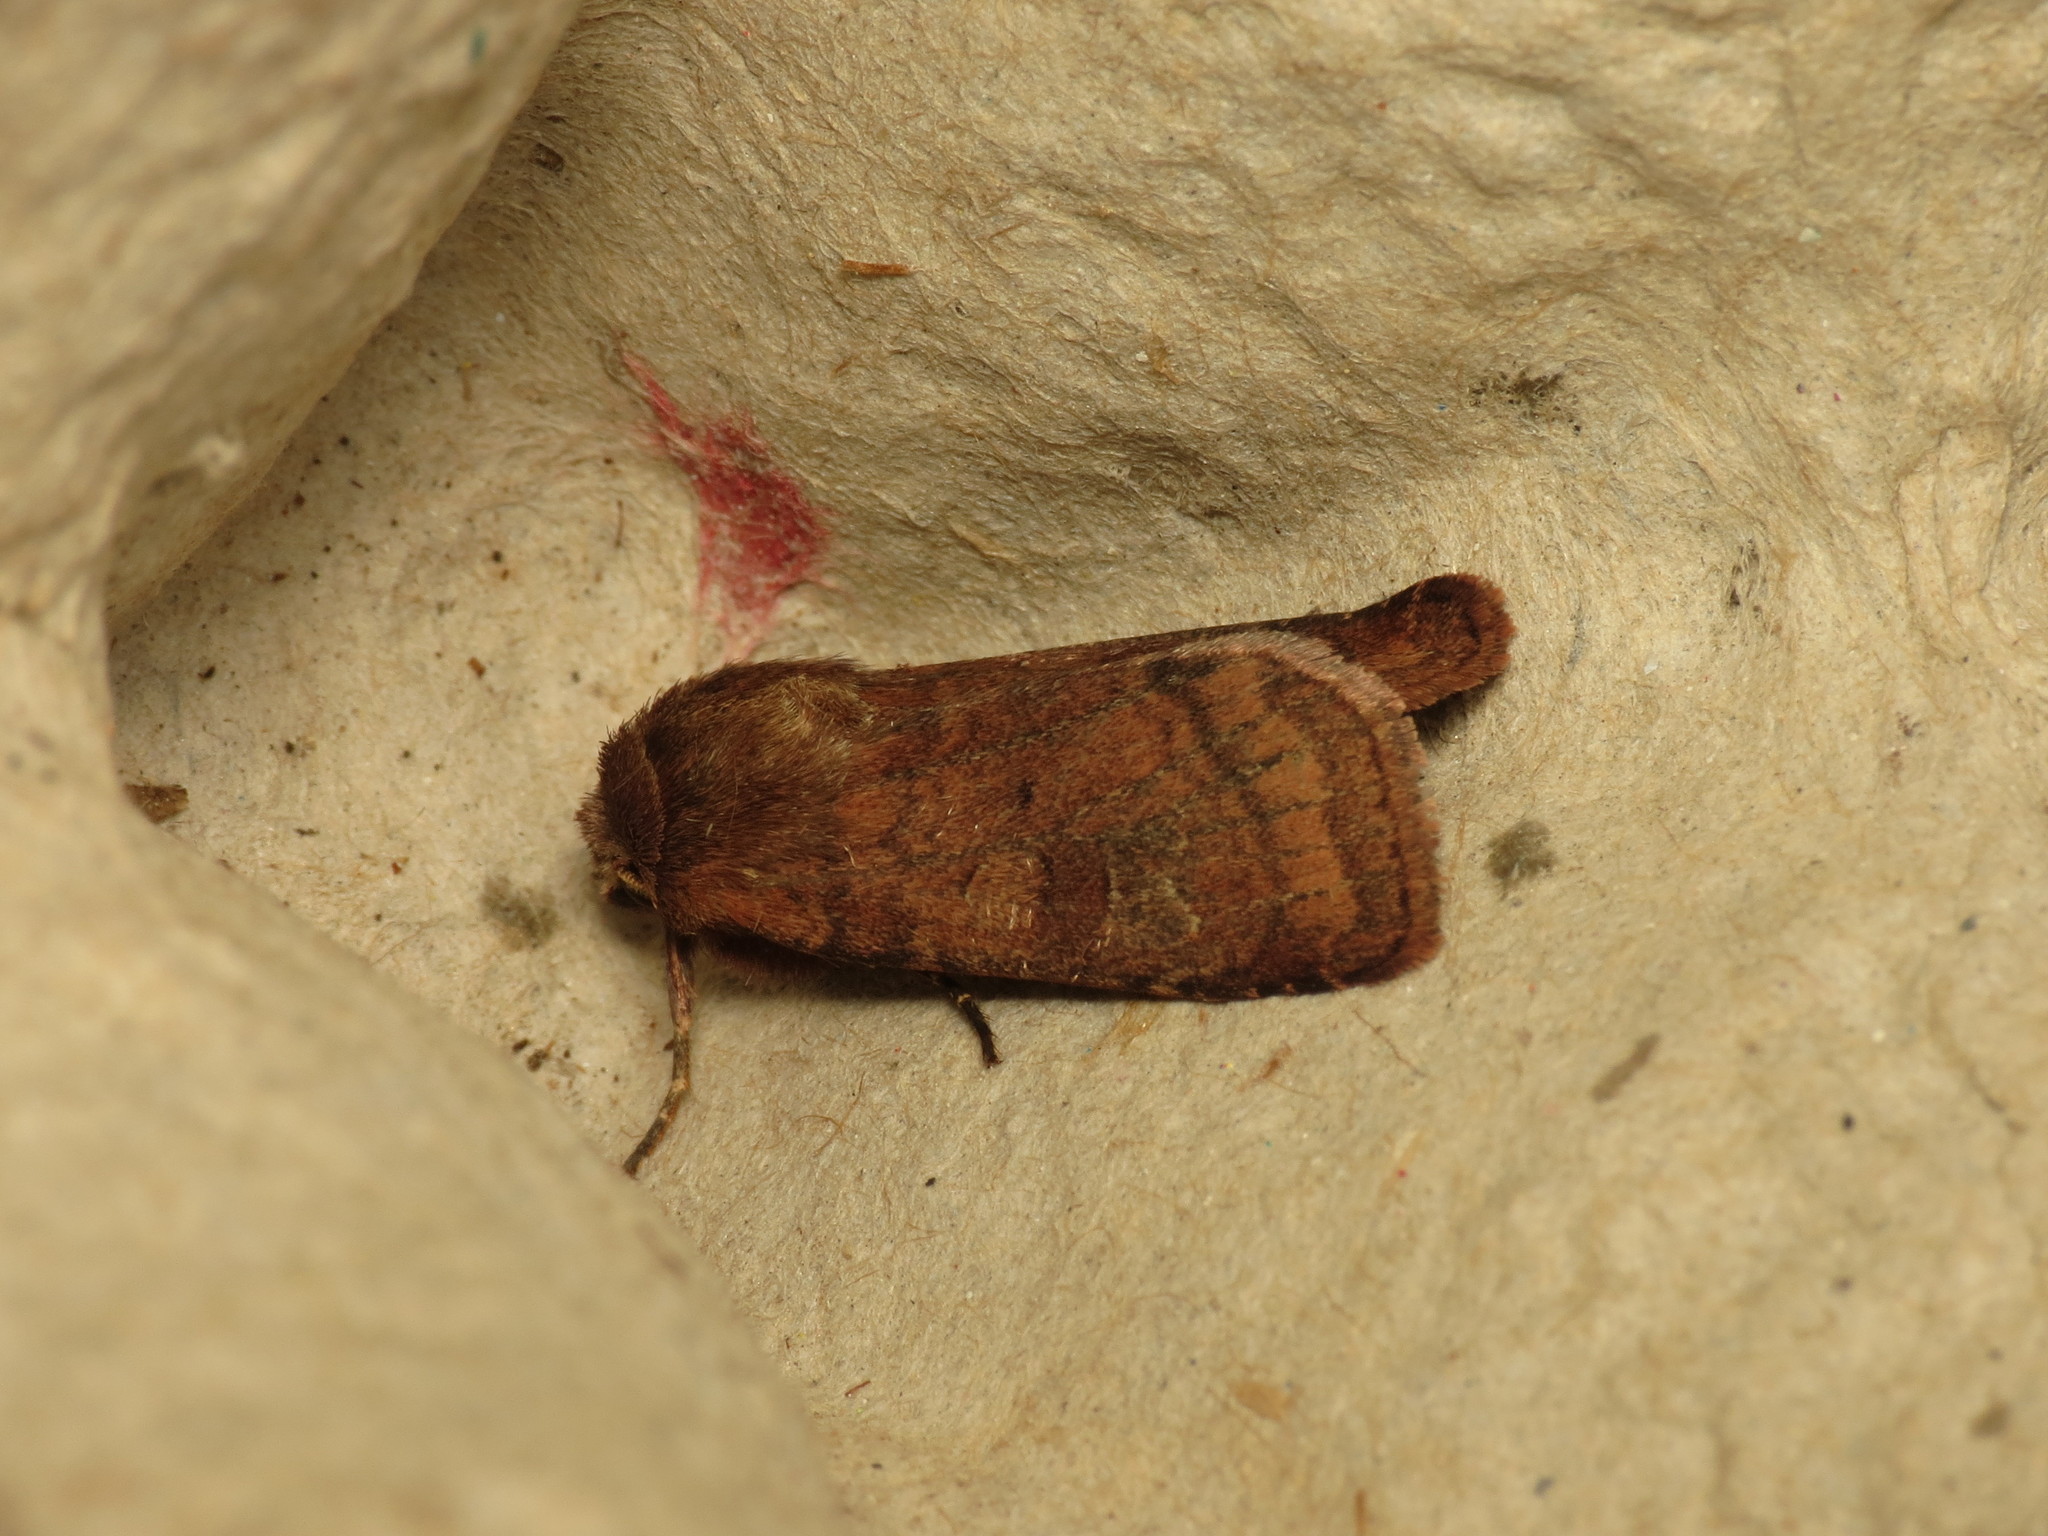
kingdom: Animalia
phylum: Arthropoda
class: Insecta
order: Lepidoptera
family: Noctuidae
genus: Diarsia
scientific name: Diarsia rubi
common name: Small square-spot
